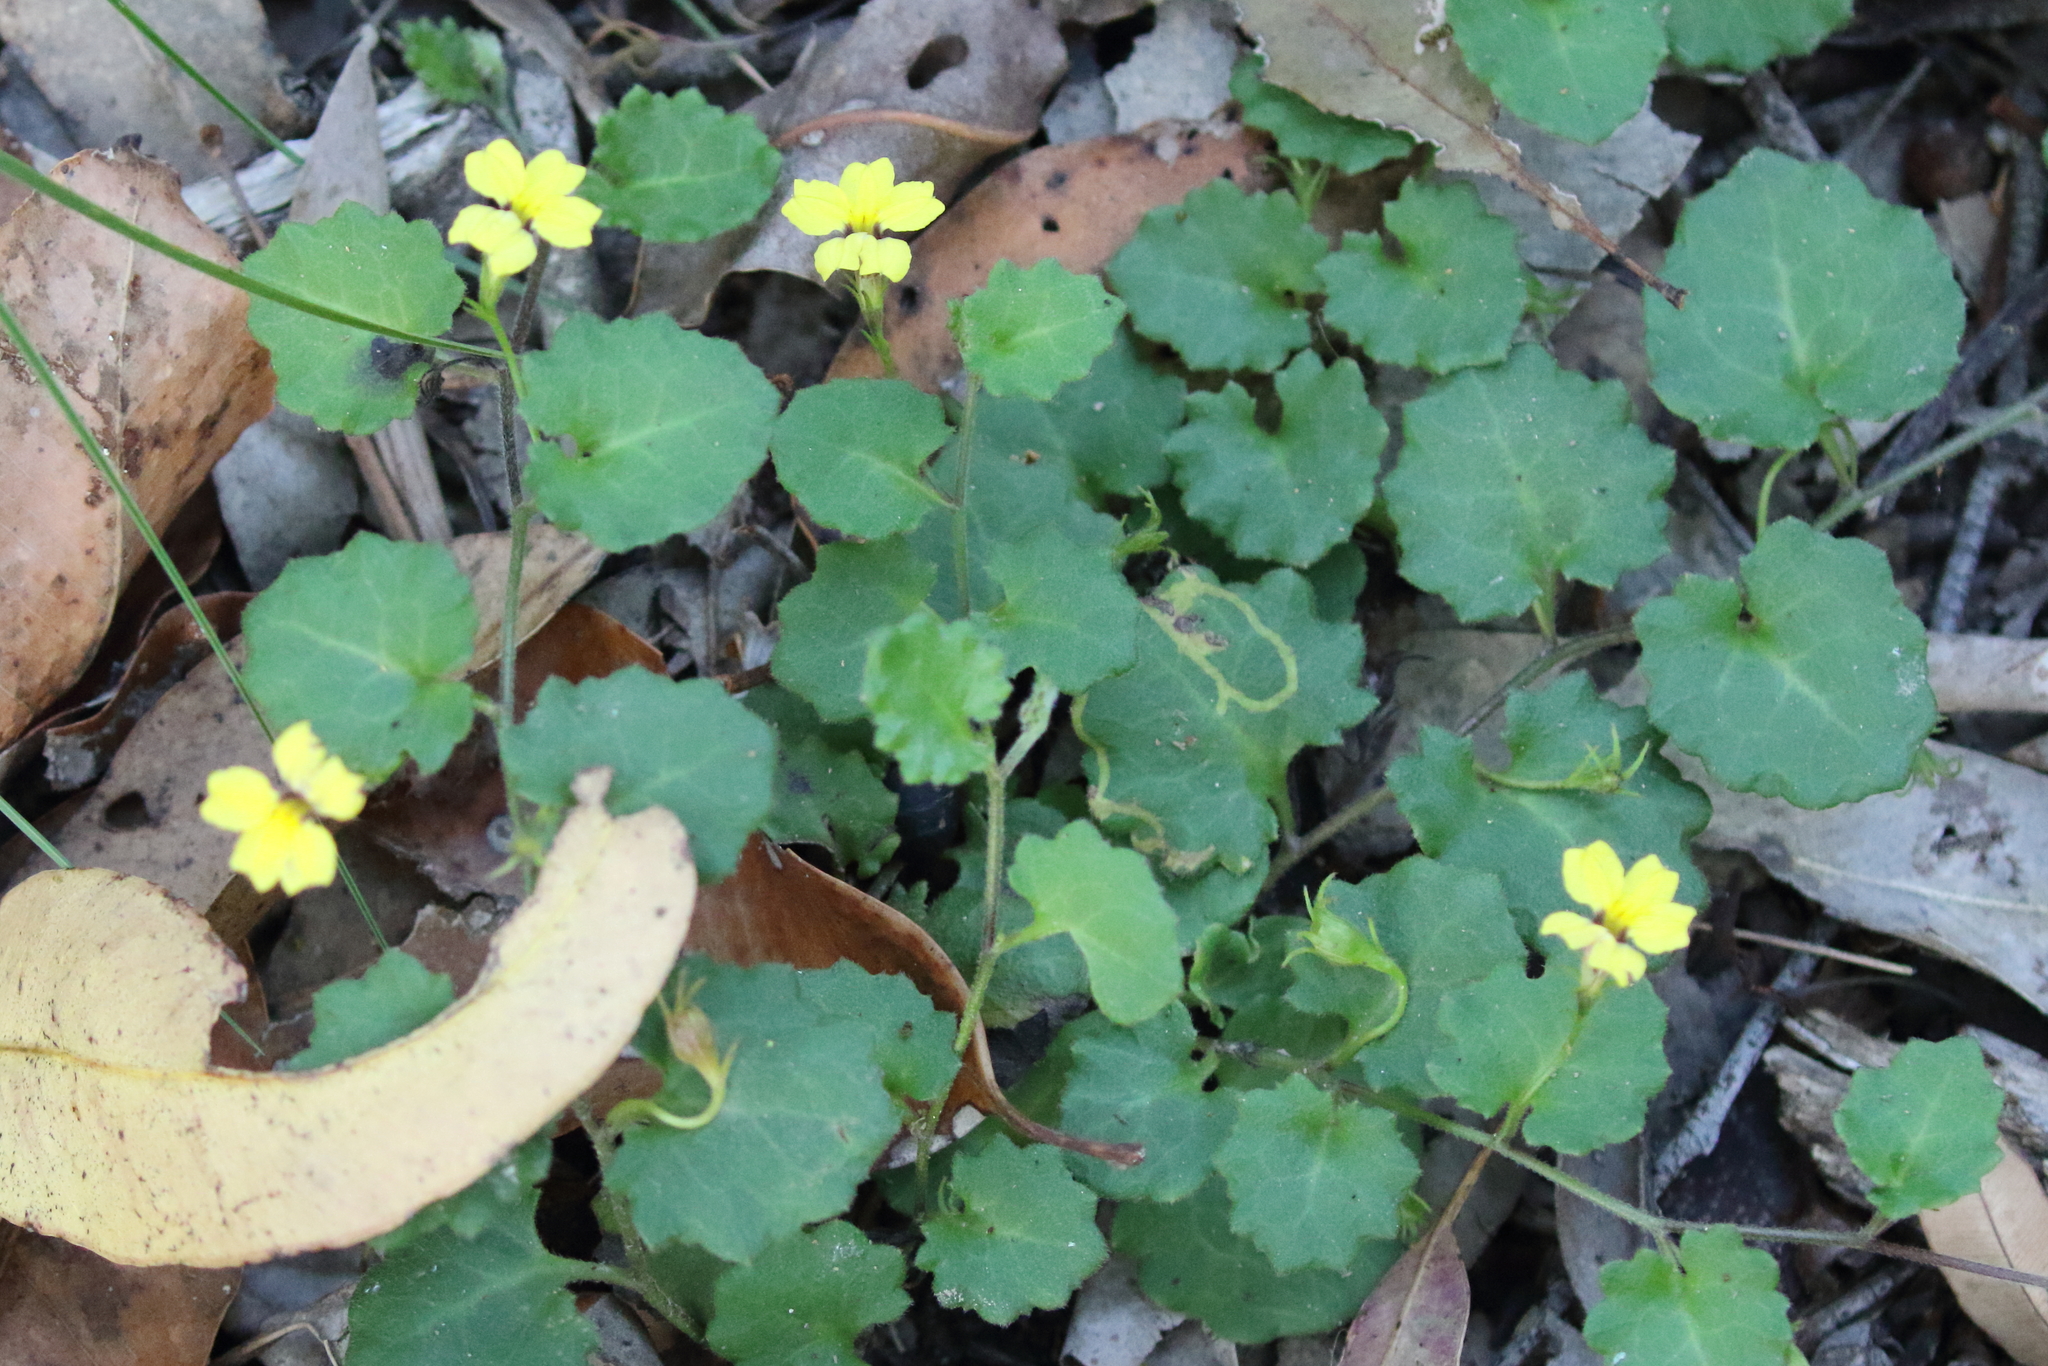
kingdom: Plantae
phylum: Tracheophyta
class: Magnoliopsida
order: Asterales
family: Goodeniaceae
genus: Goodenia
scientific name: Goodenia rotundifolia
